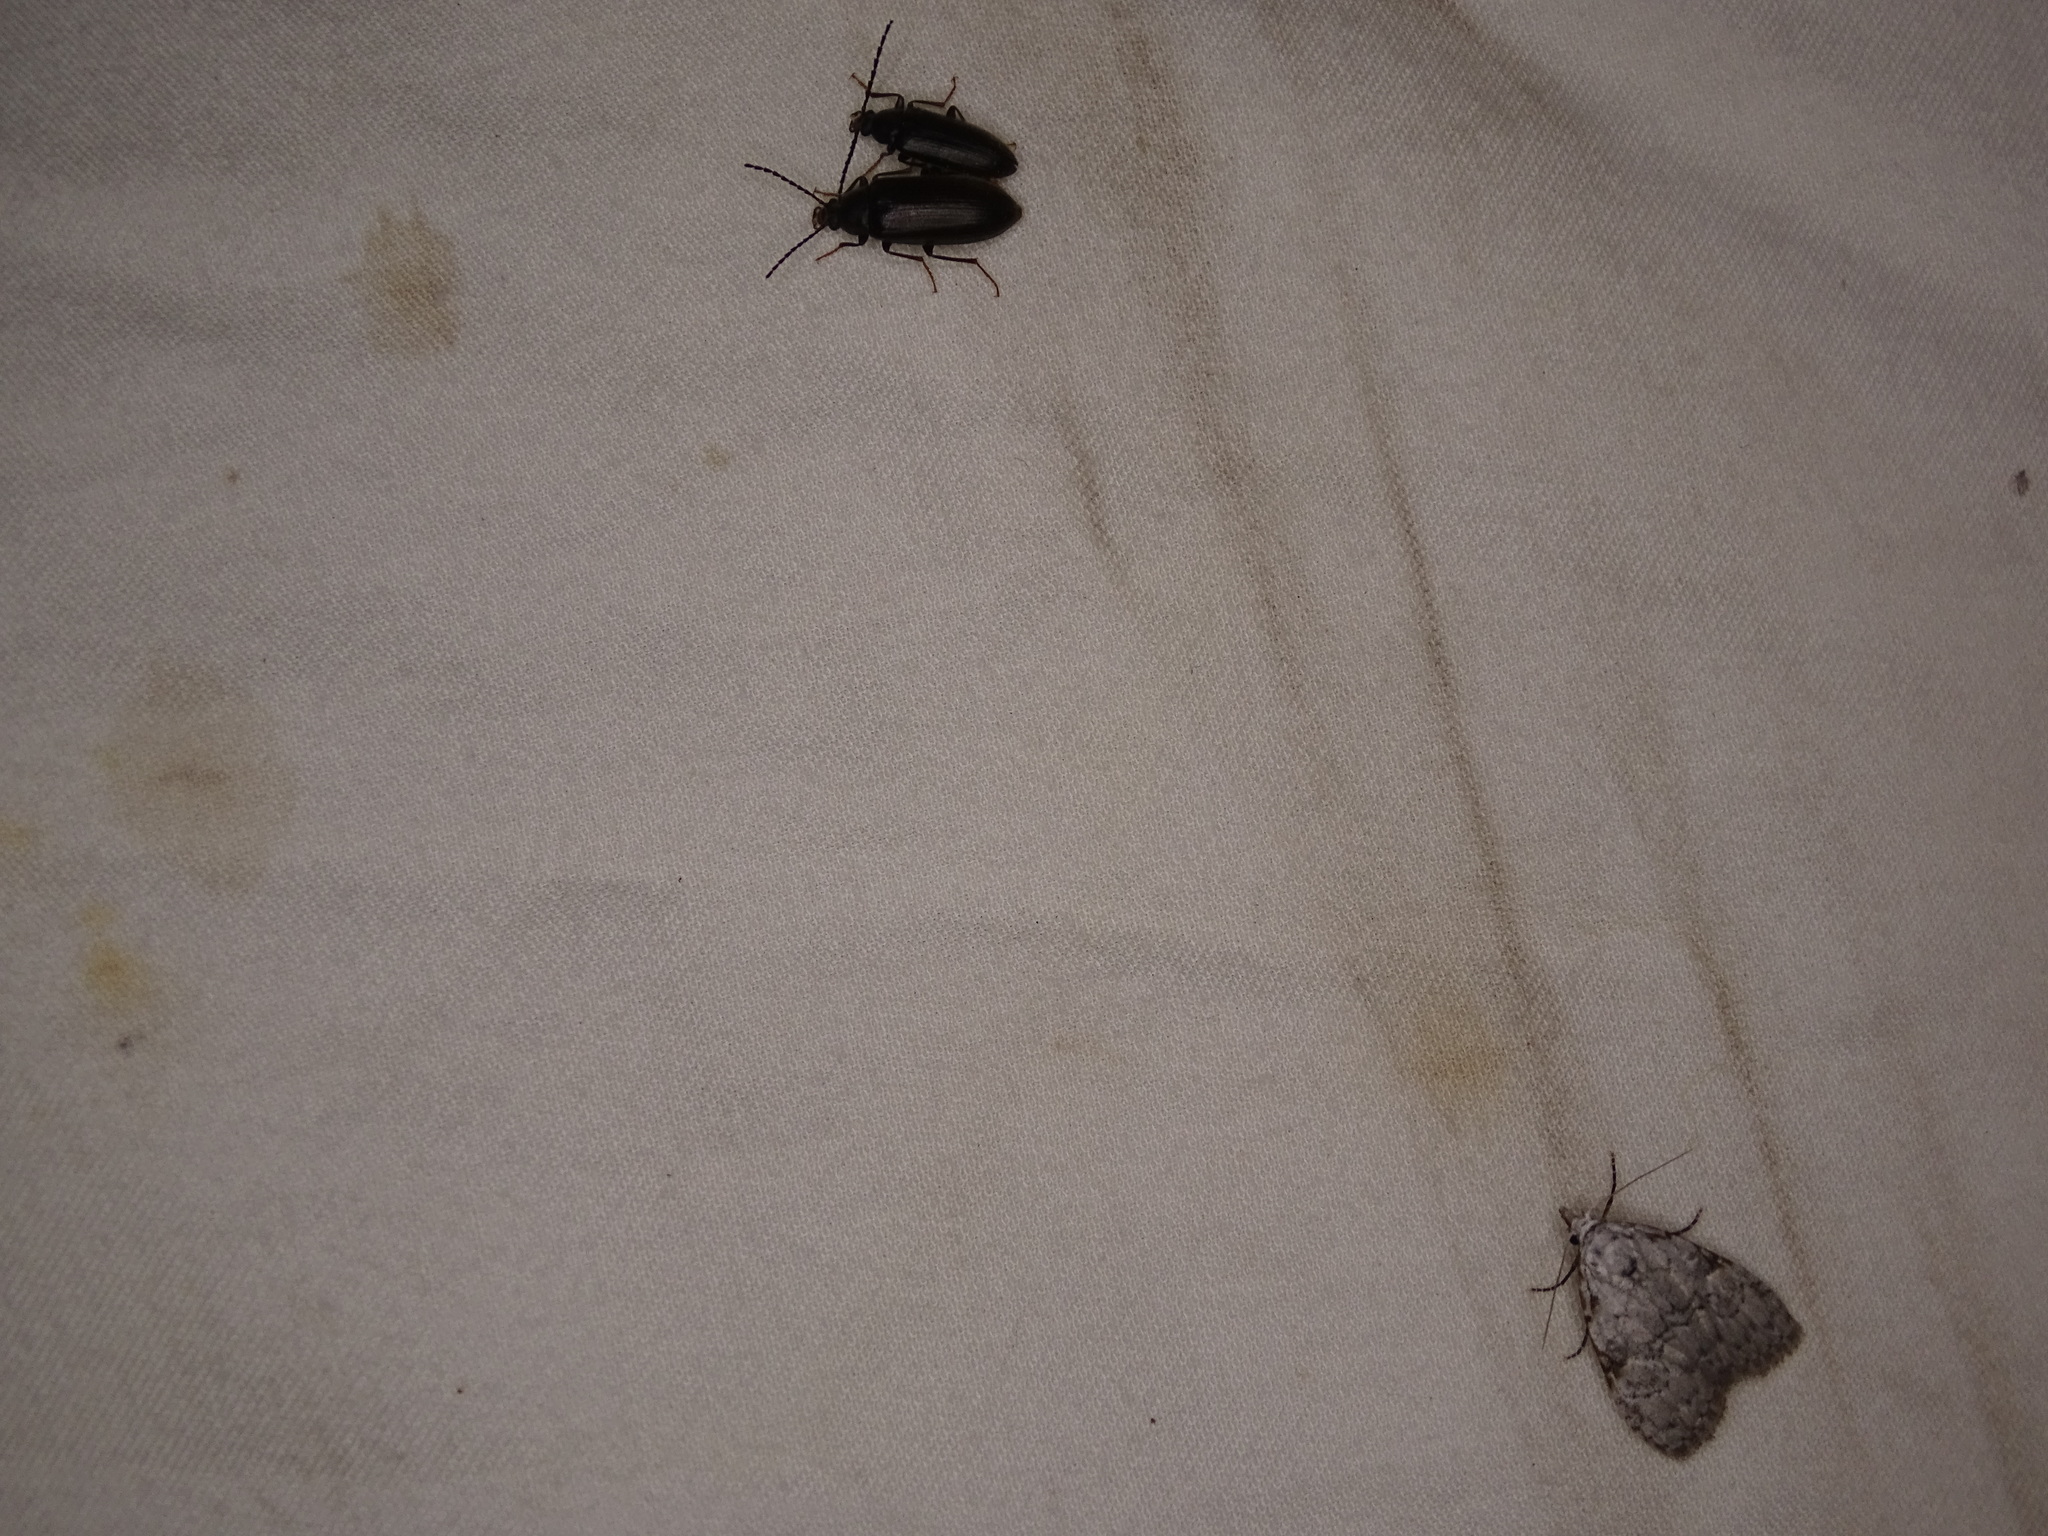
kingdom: Animalia
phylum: Arthropoda
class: Insecta
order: Lepidoptera
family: Nolidae
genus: Meganola
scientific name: Meganola minuscula
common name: Confused meganola moth
